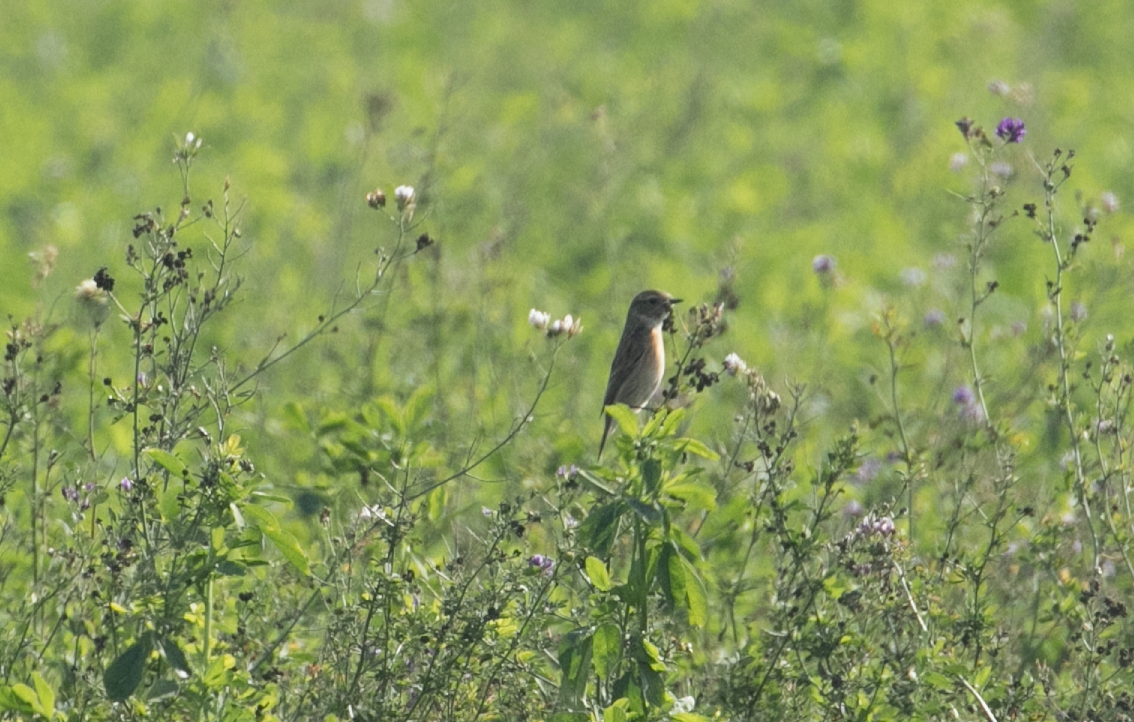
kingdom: Animalia
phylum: Chordata
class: Aves
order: Passeriformes
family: Muscicapidae
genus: Saxicola
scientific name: Saxicola rubicola
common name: European stonechat
